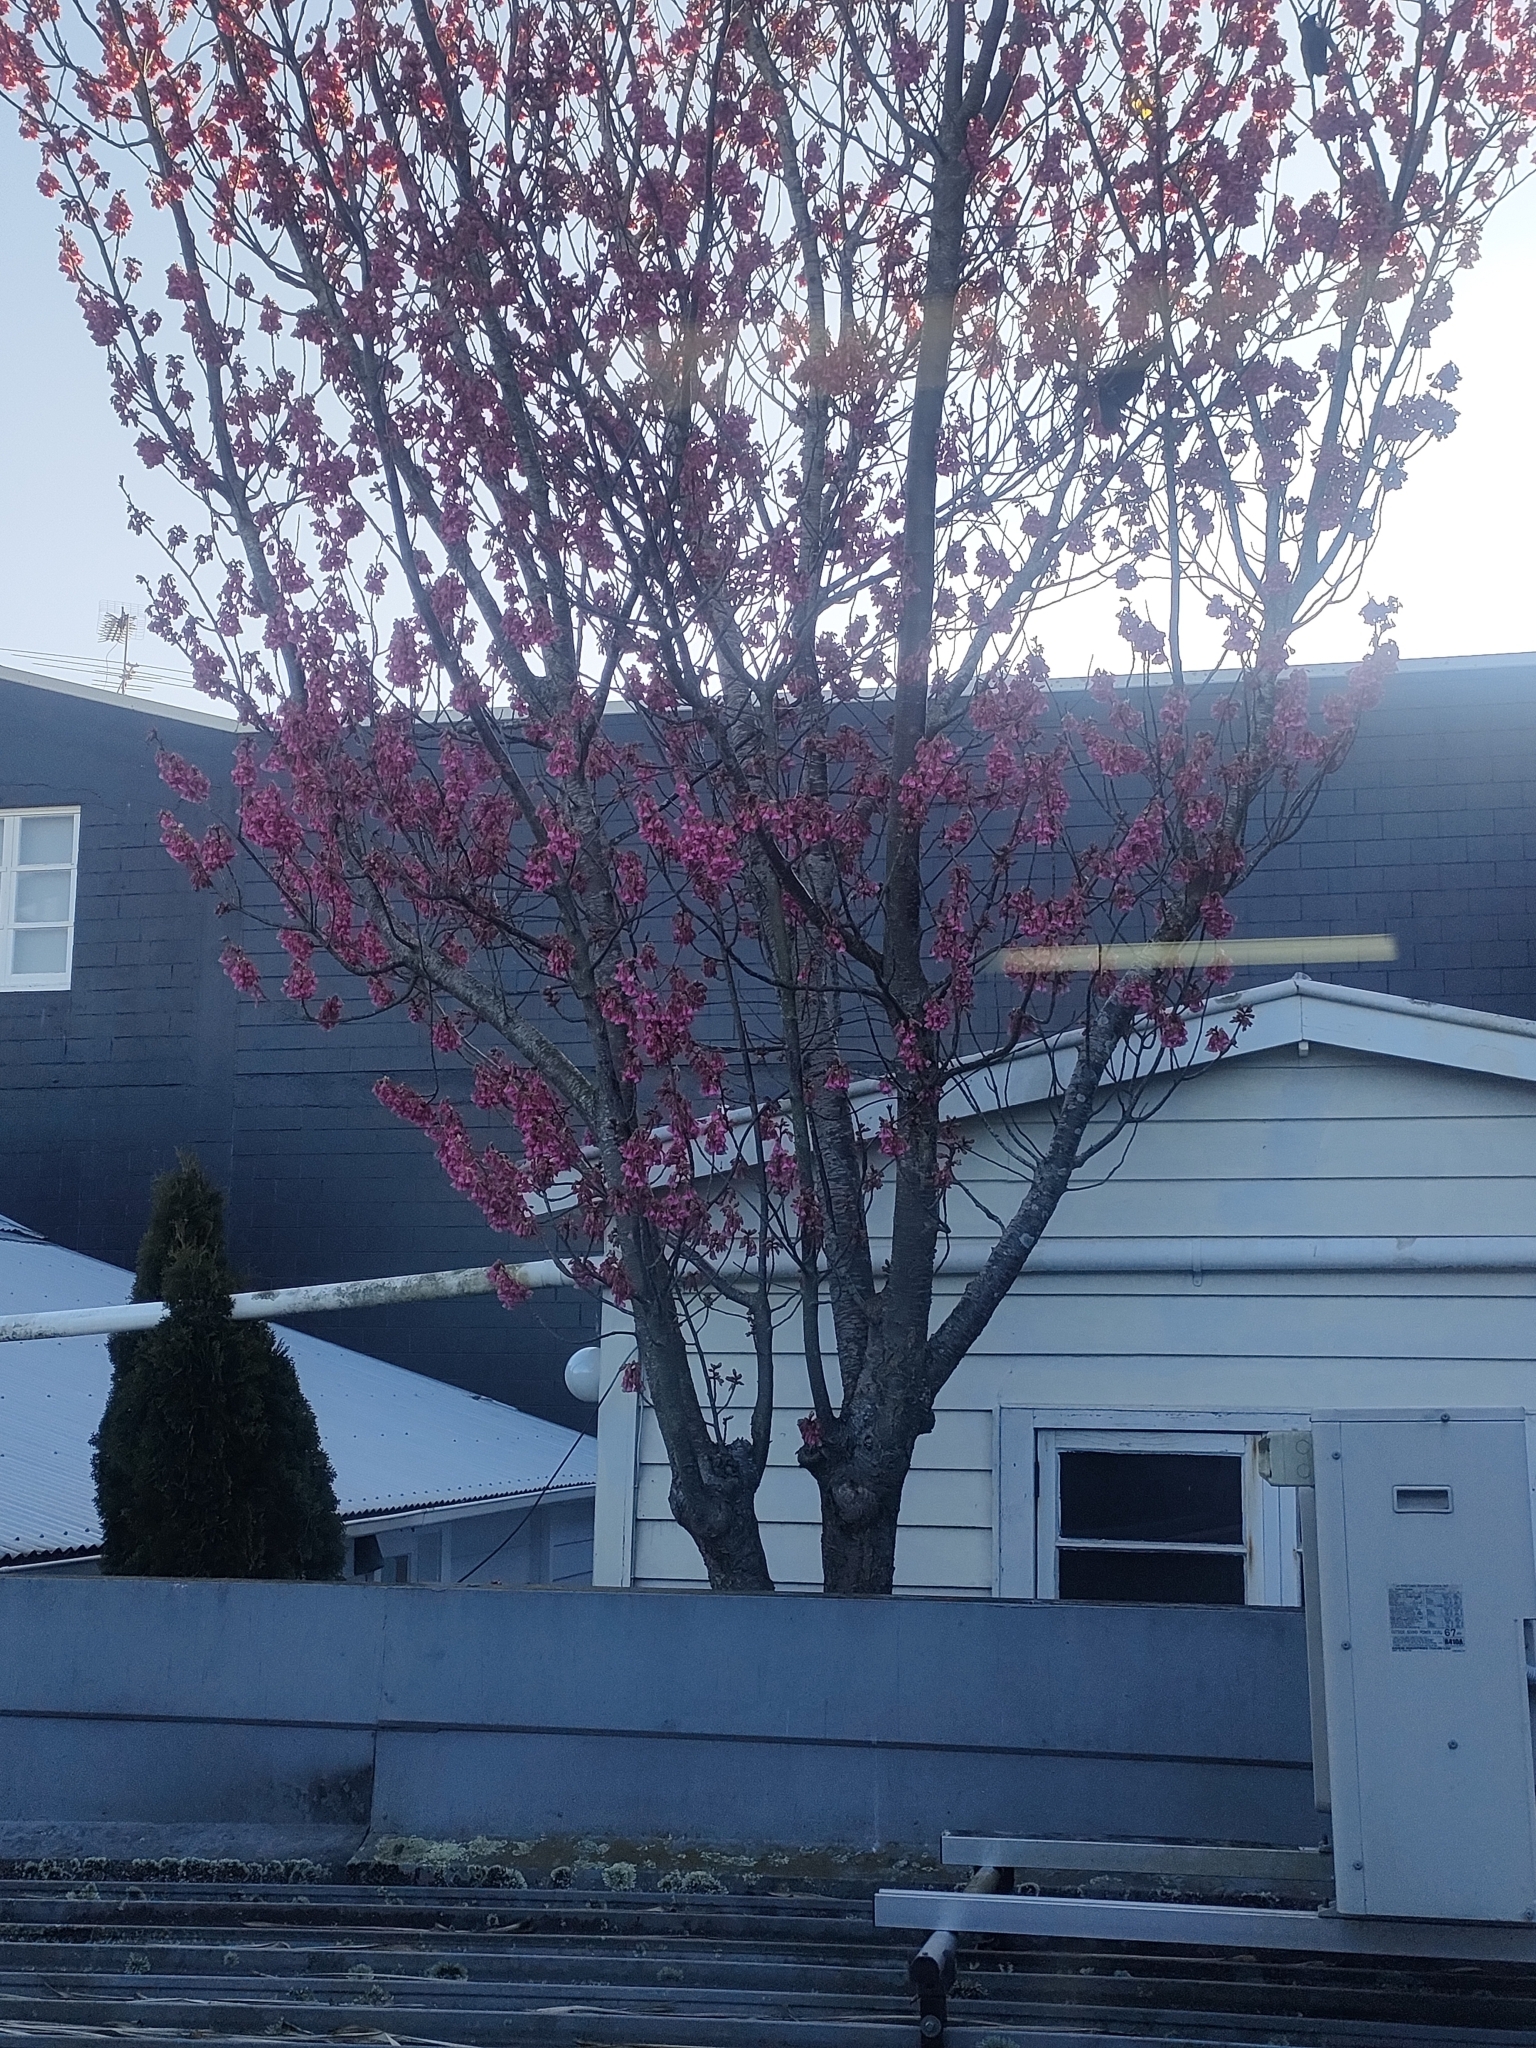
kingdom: Plantae
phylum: Tracheophyta
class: Magnoliopsida
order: Rosales
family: Rosaceae
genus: Prunus
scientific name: Prunus campanulata
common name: Taiwan flowering cherry
